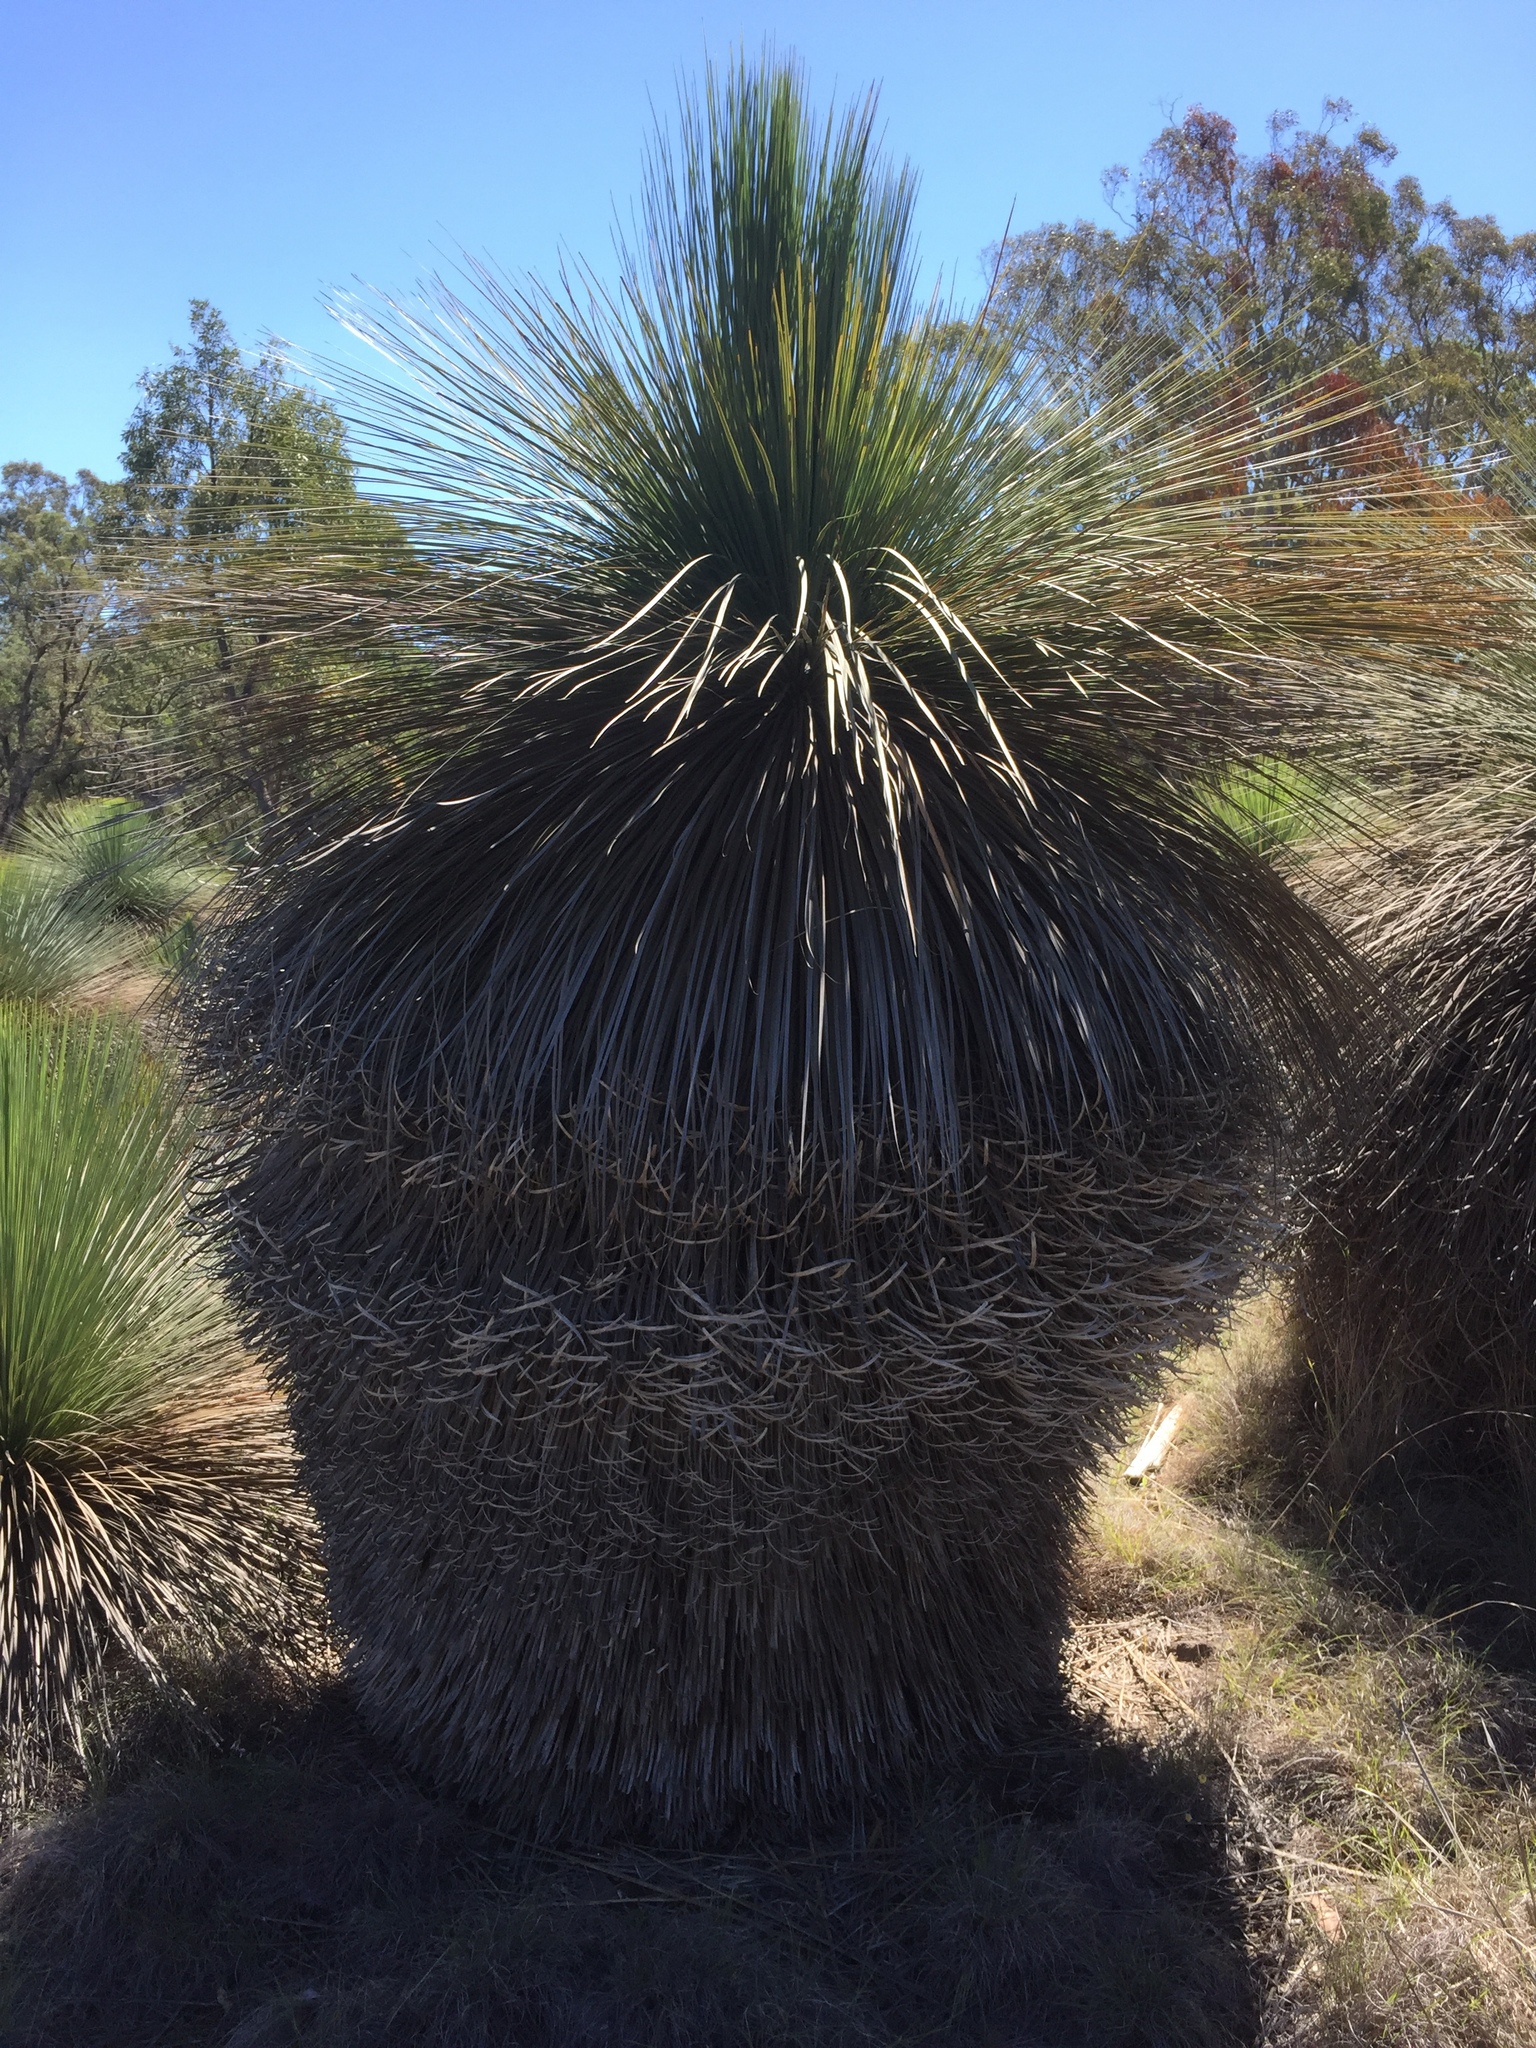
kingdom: Plantae
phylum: Tracheophyta
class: Liliopsida
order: Asparagales
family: Asphodelaceae
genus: Xanthorrhoea
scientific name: Xanthorrhoea glauca
